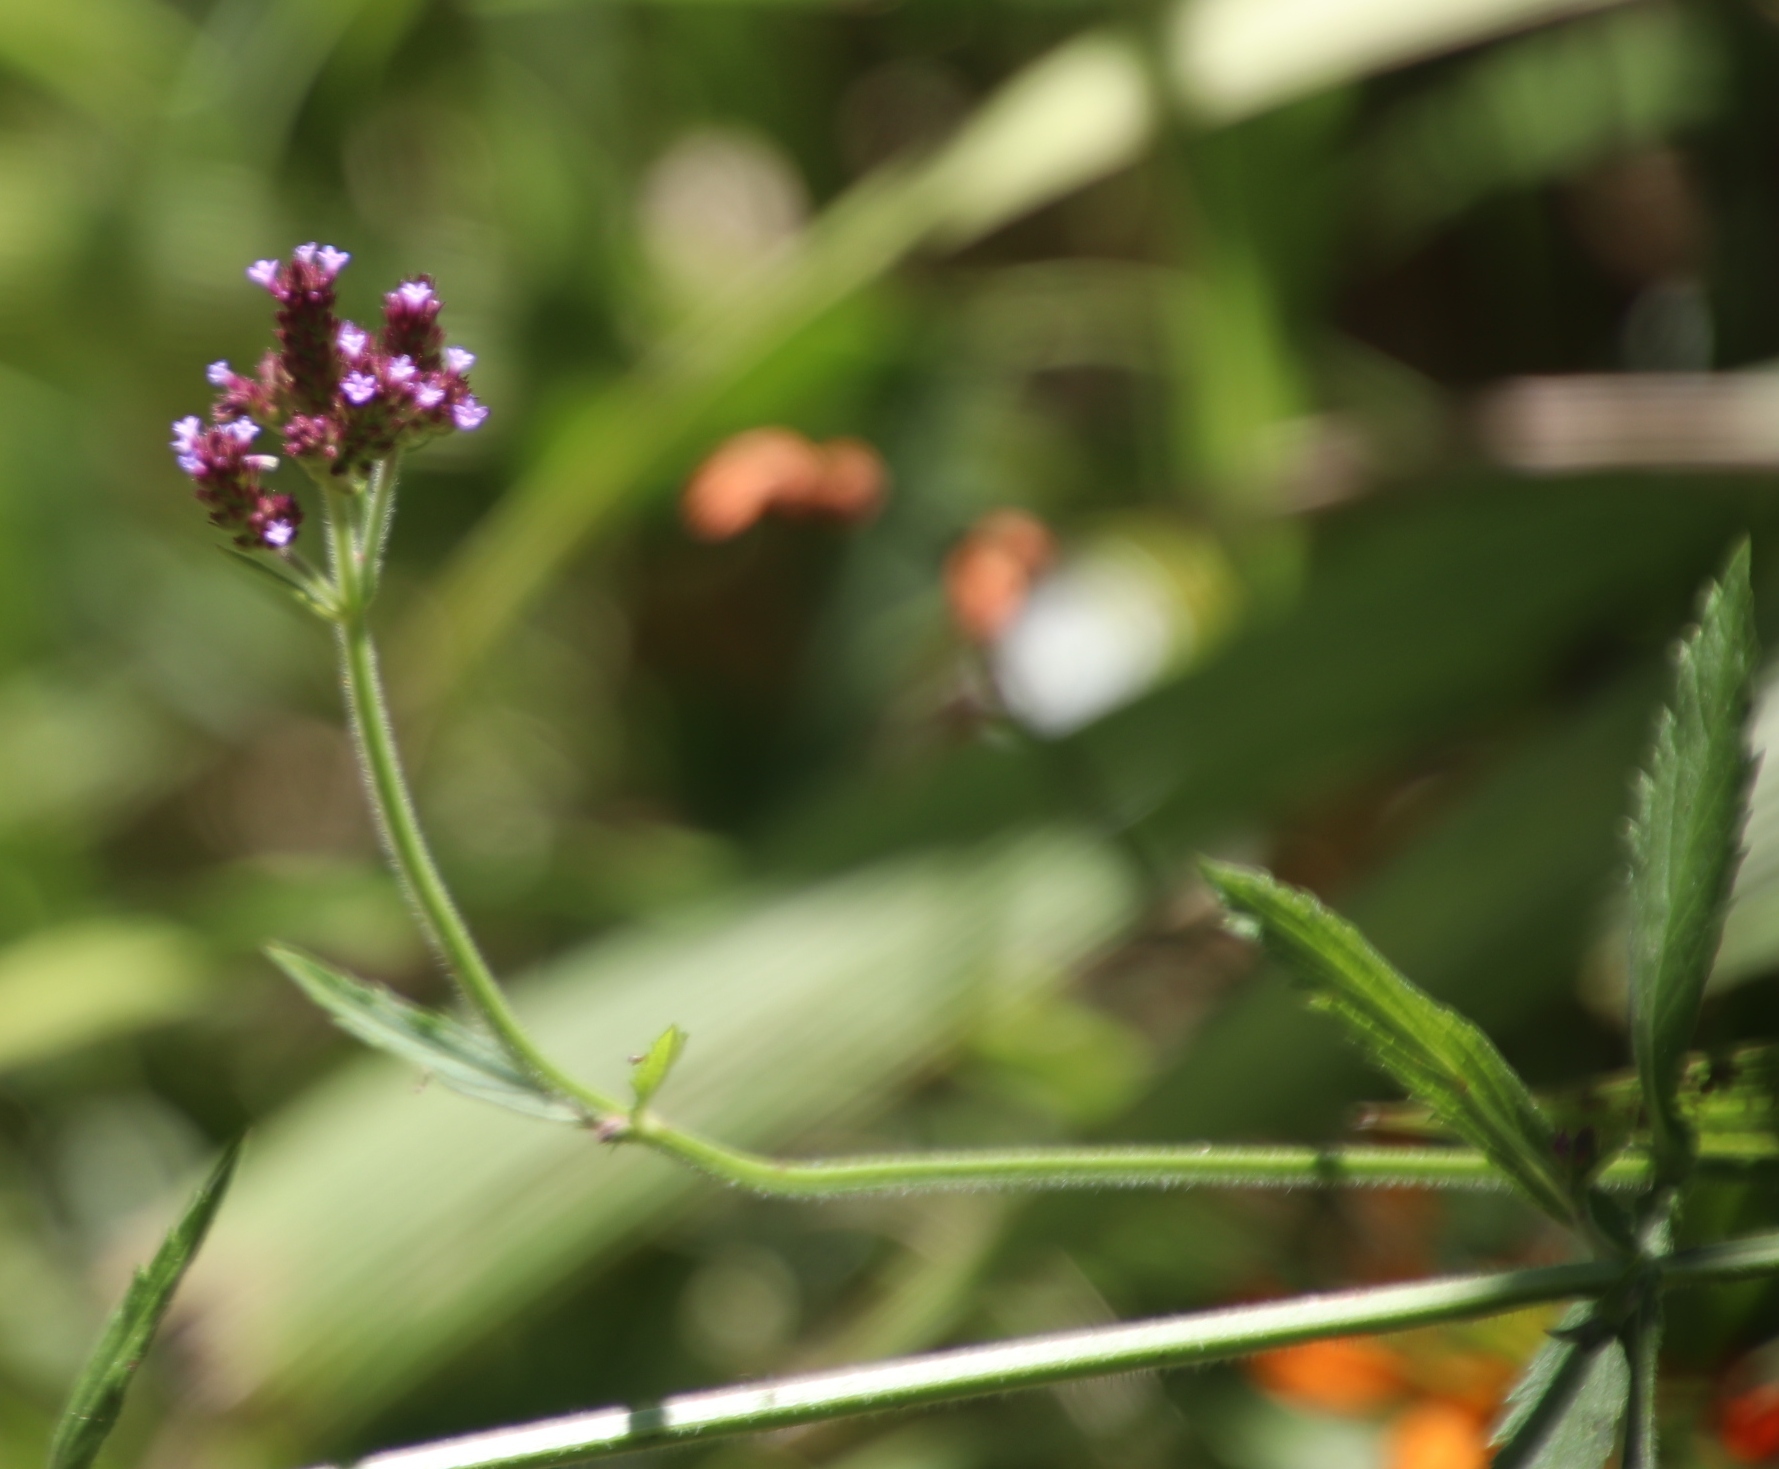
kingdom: Plantae
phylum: Tracheophyta
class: Magnoliopsida
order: Lamiales
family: Verbenaceae
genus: Verbena
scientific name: Verbena bonariensis
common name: Purpletop vervain
